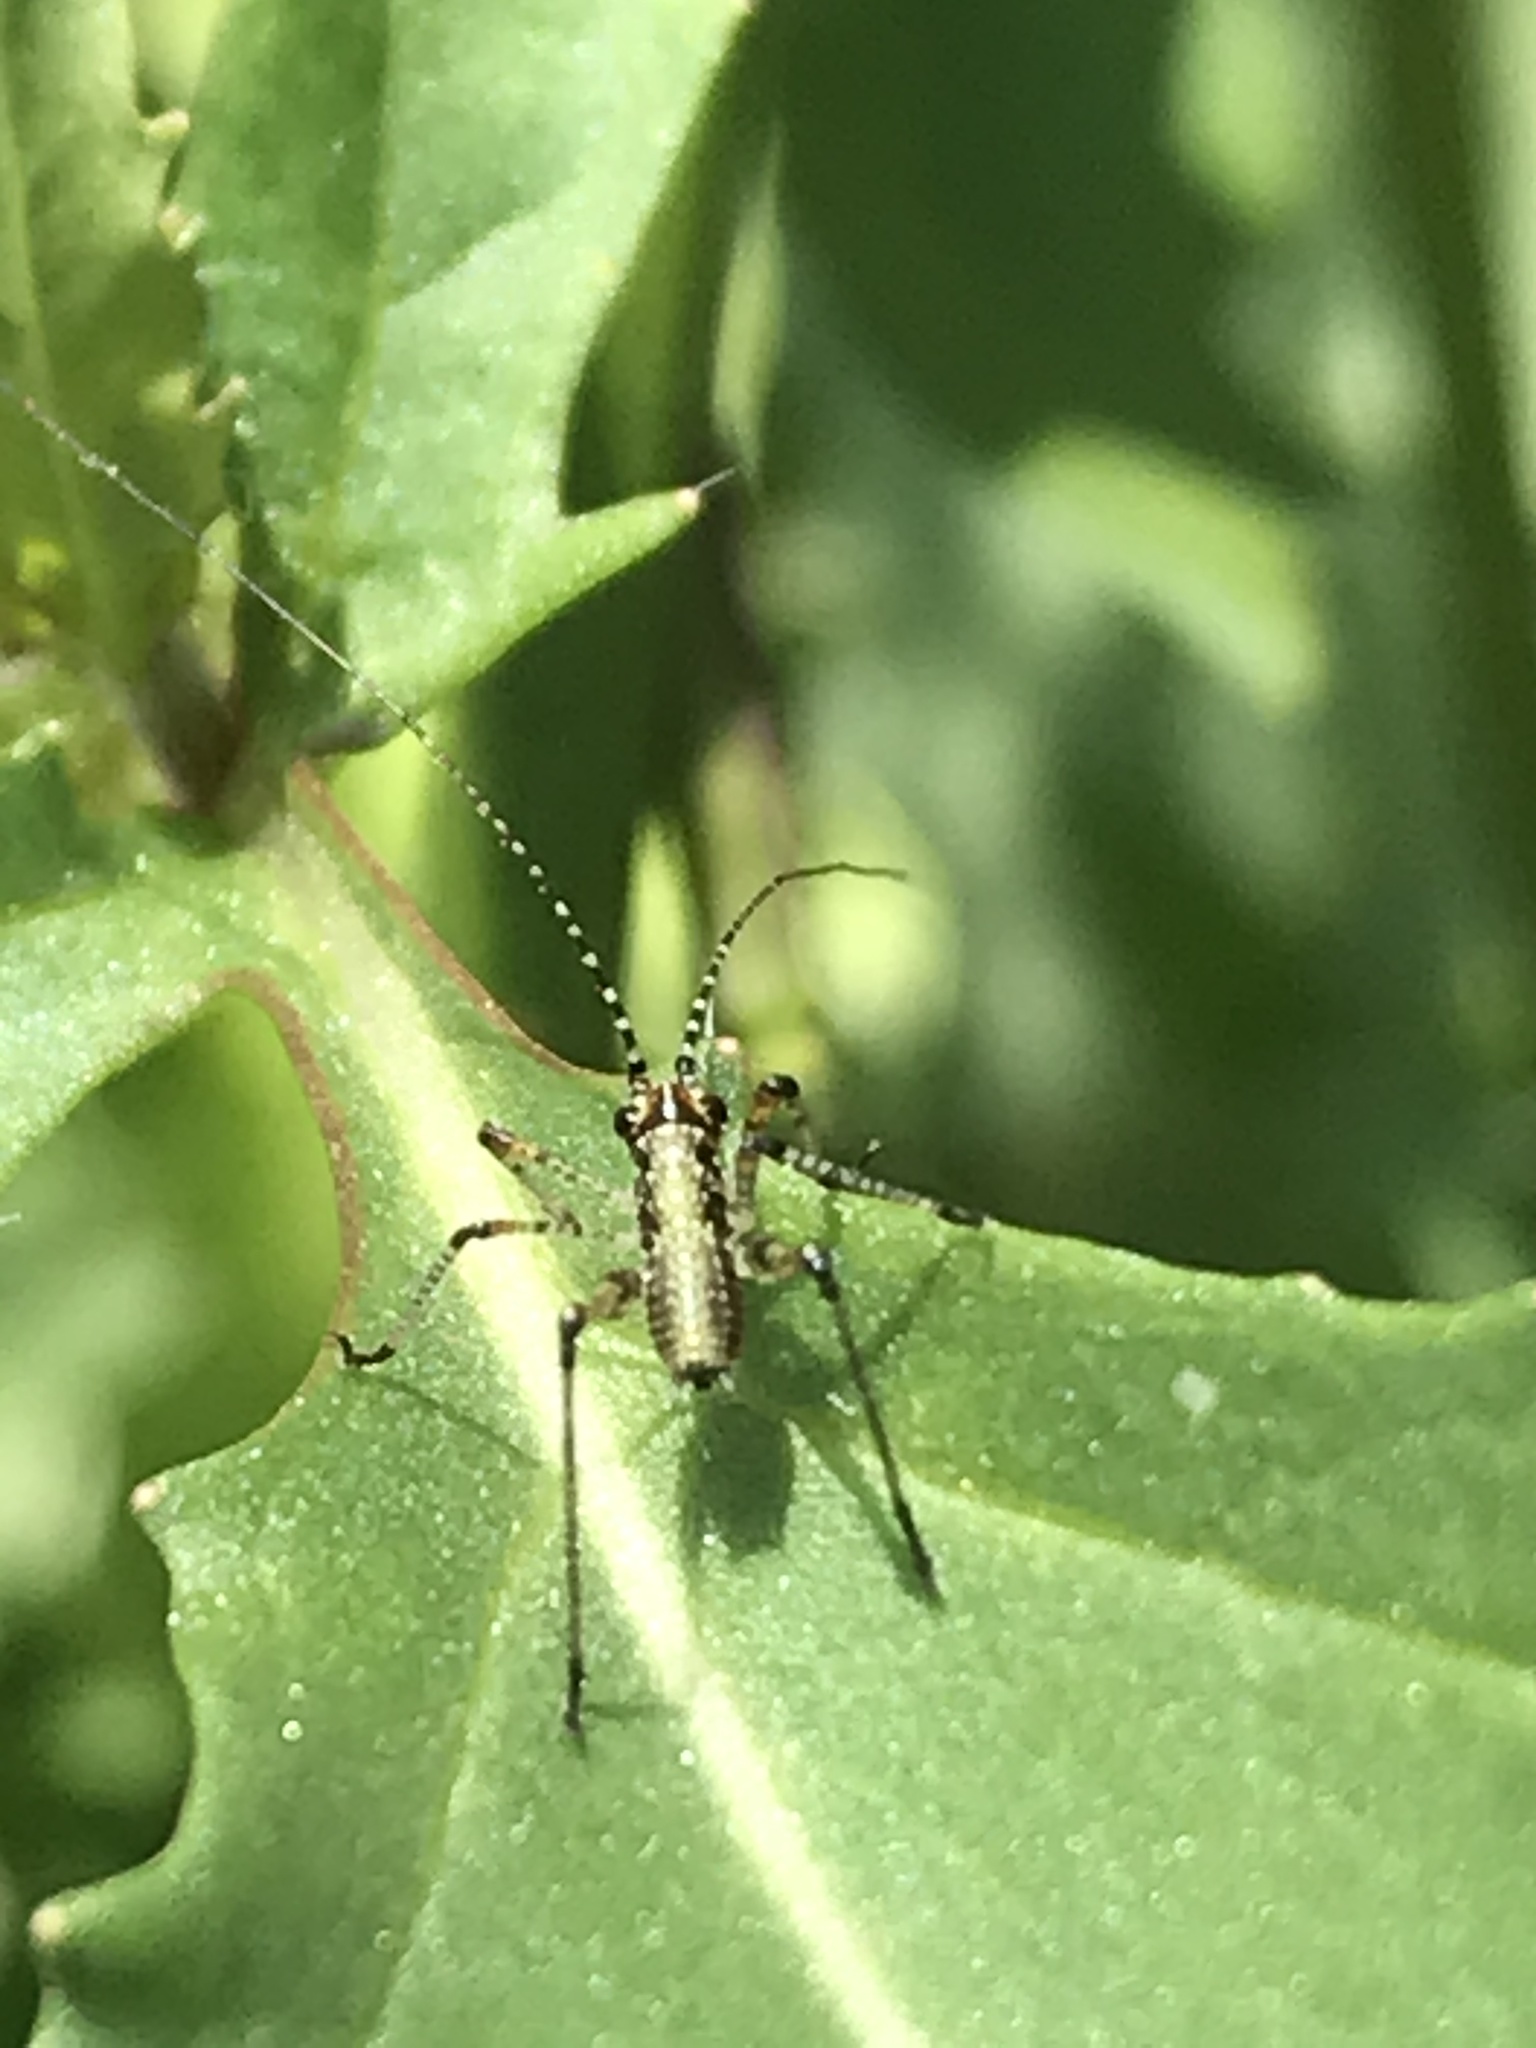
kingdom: Animalia
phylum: Arthropoda
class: Insecta
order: Orthoptera
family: Tettigoniidae
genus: Phaneroptera
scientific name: Phaneroptera nana
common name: Southern sickle bush-cricket
